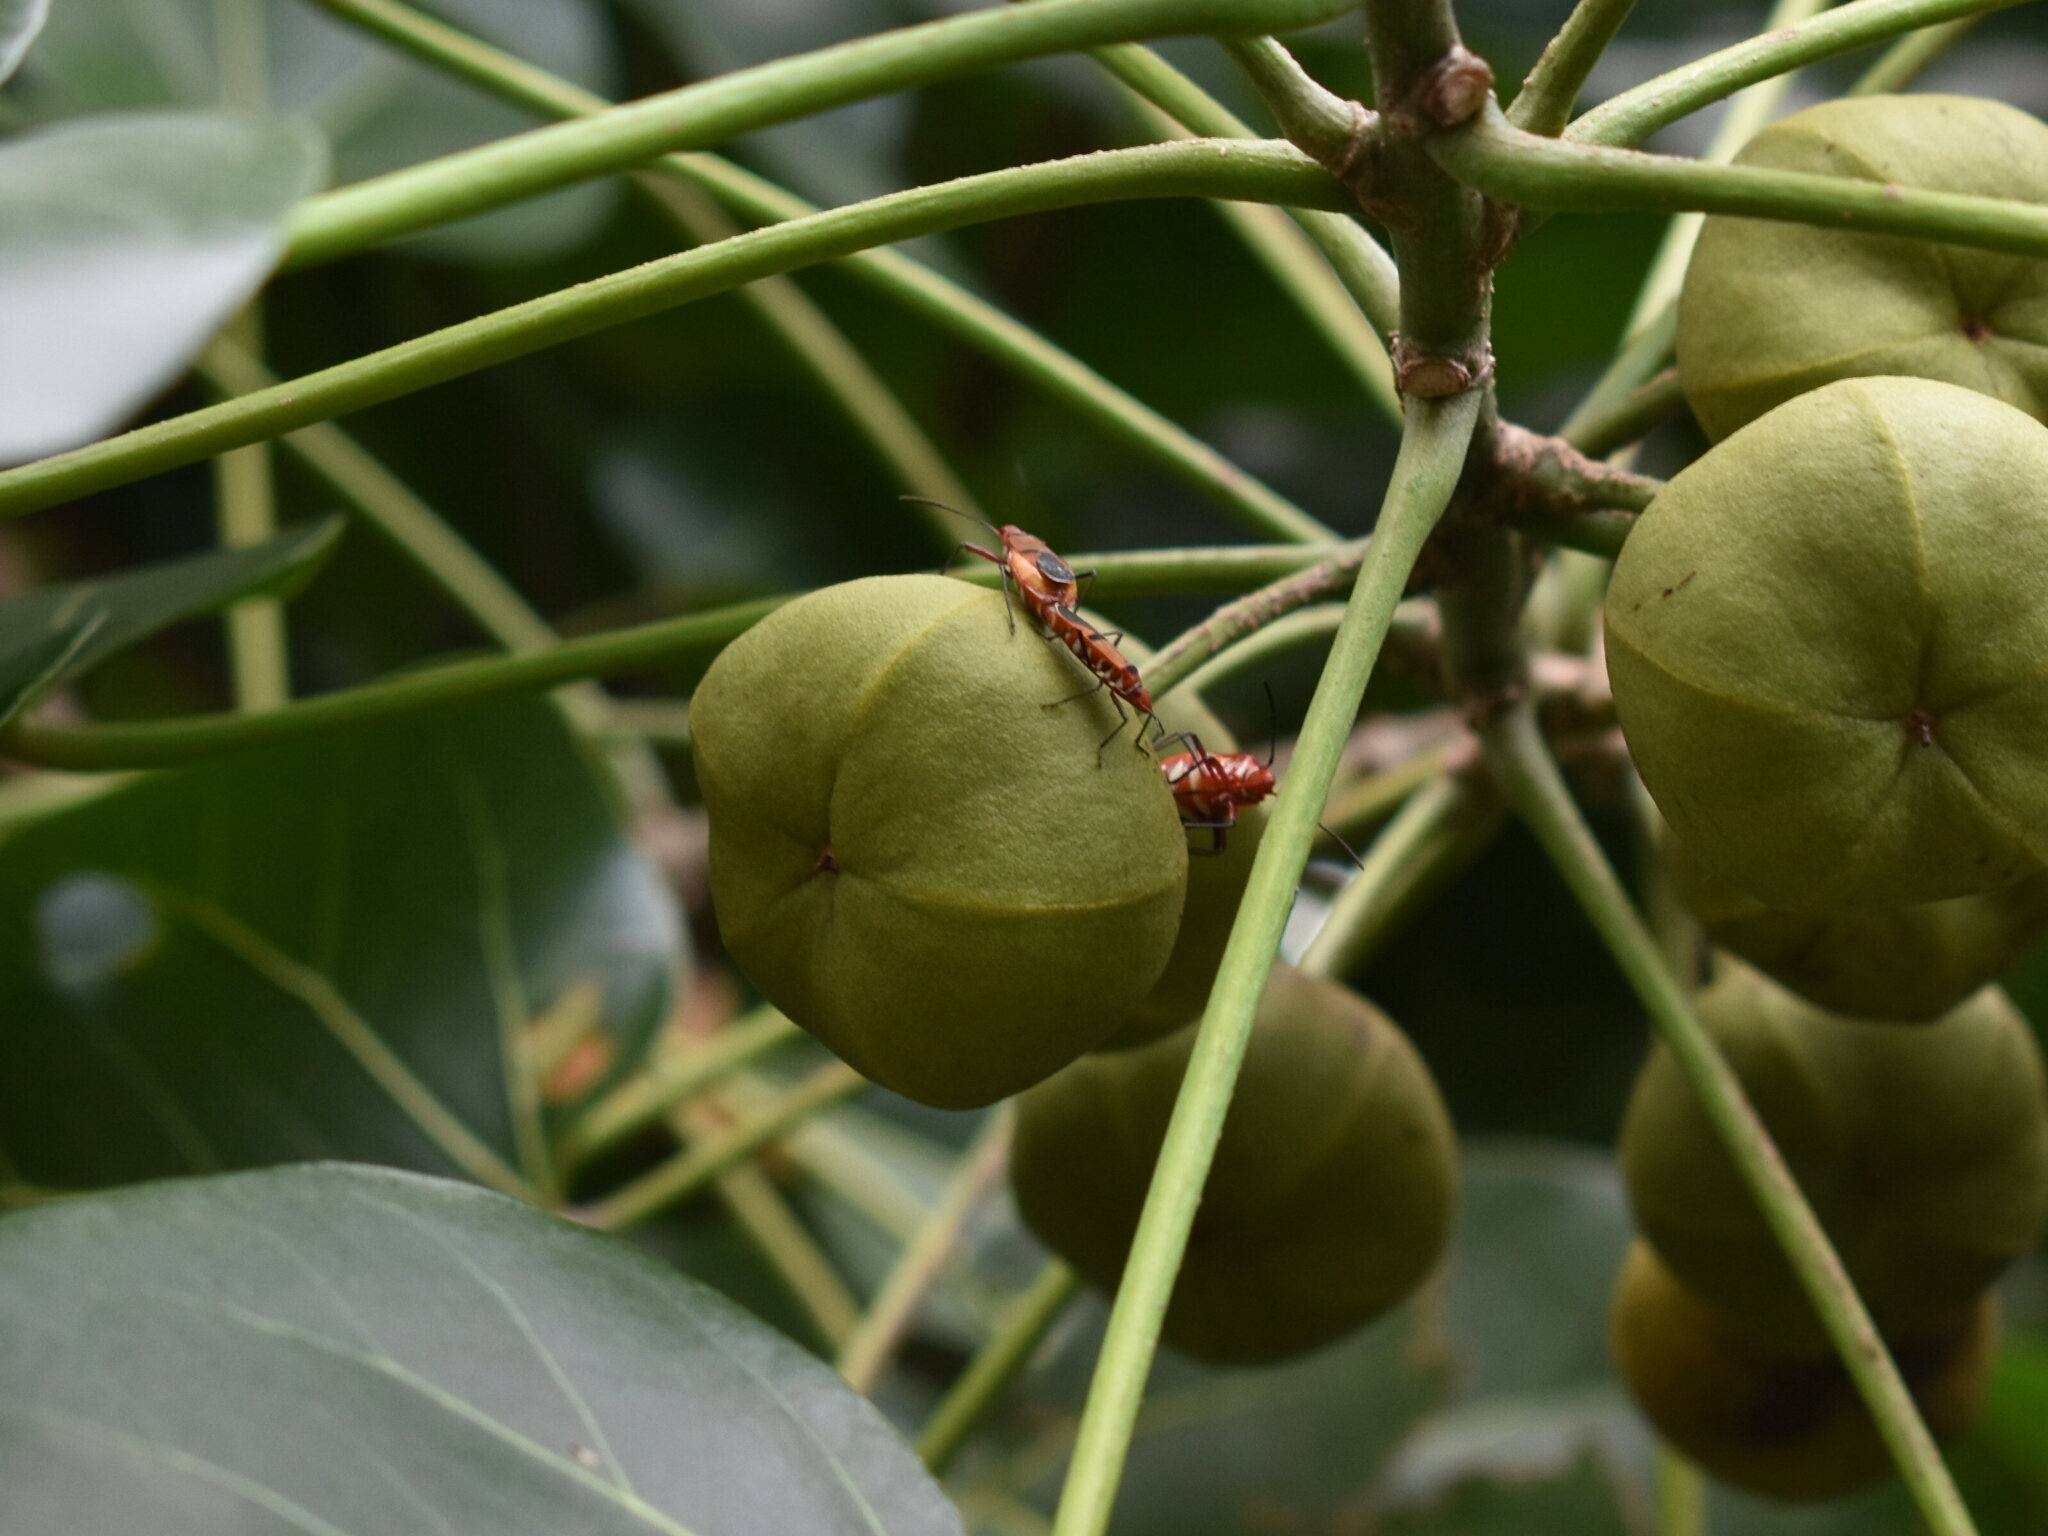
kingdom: Animalia
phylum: Arthropoda
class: Insecta
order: Hemiptera
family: Pyrrhocoridae
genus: Dysdercus
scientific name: Dysdercus fasciatus
